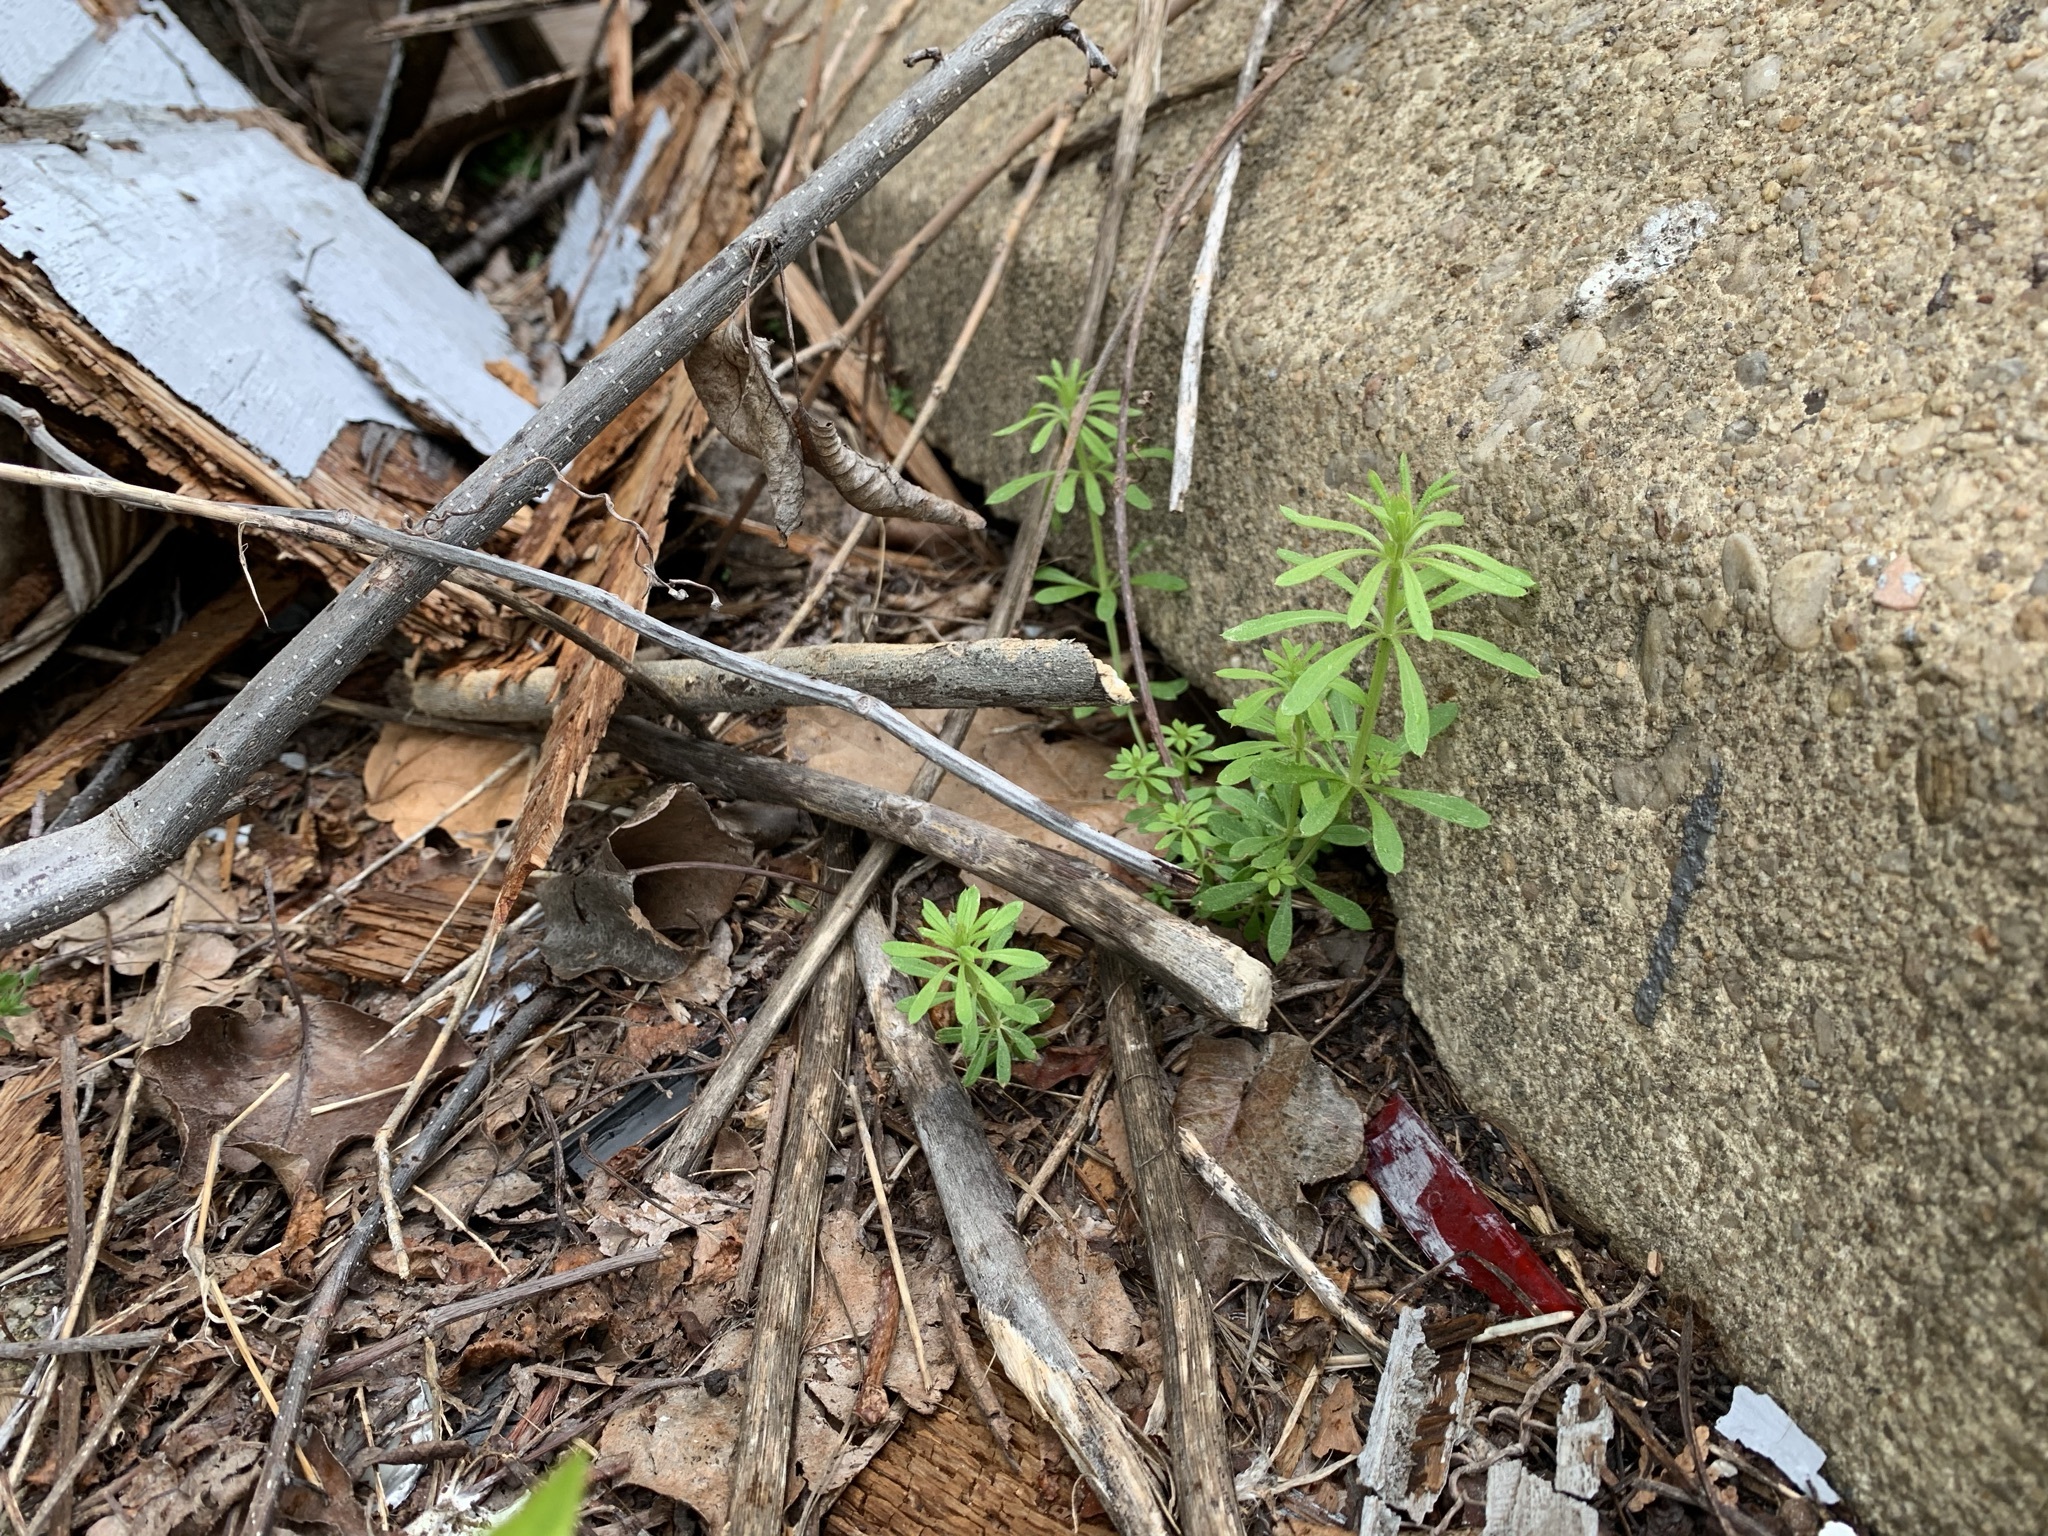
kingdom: Plantae
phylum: Tracheophyta
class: Magnoliopsida
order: Gentianales
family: Rubiaceae
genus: Galium
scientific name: Galium aparine
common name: Cleavers
